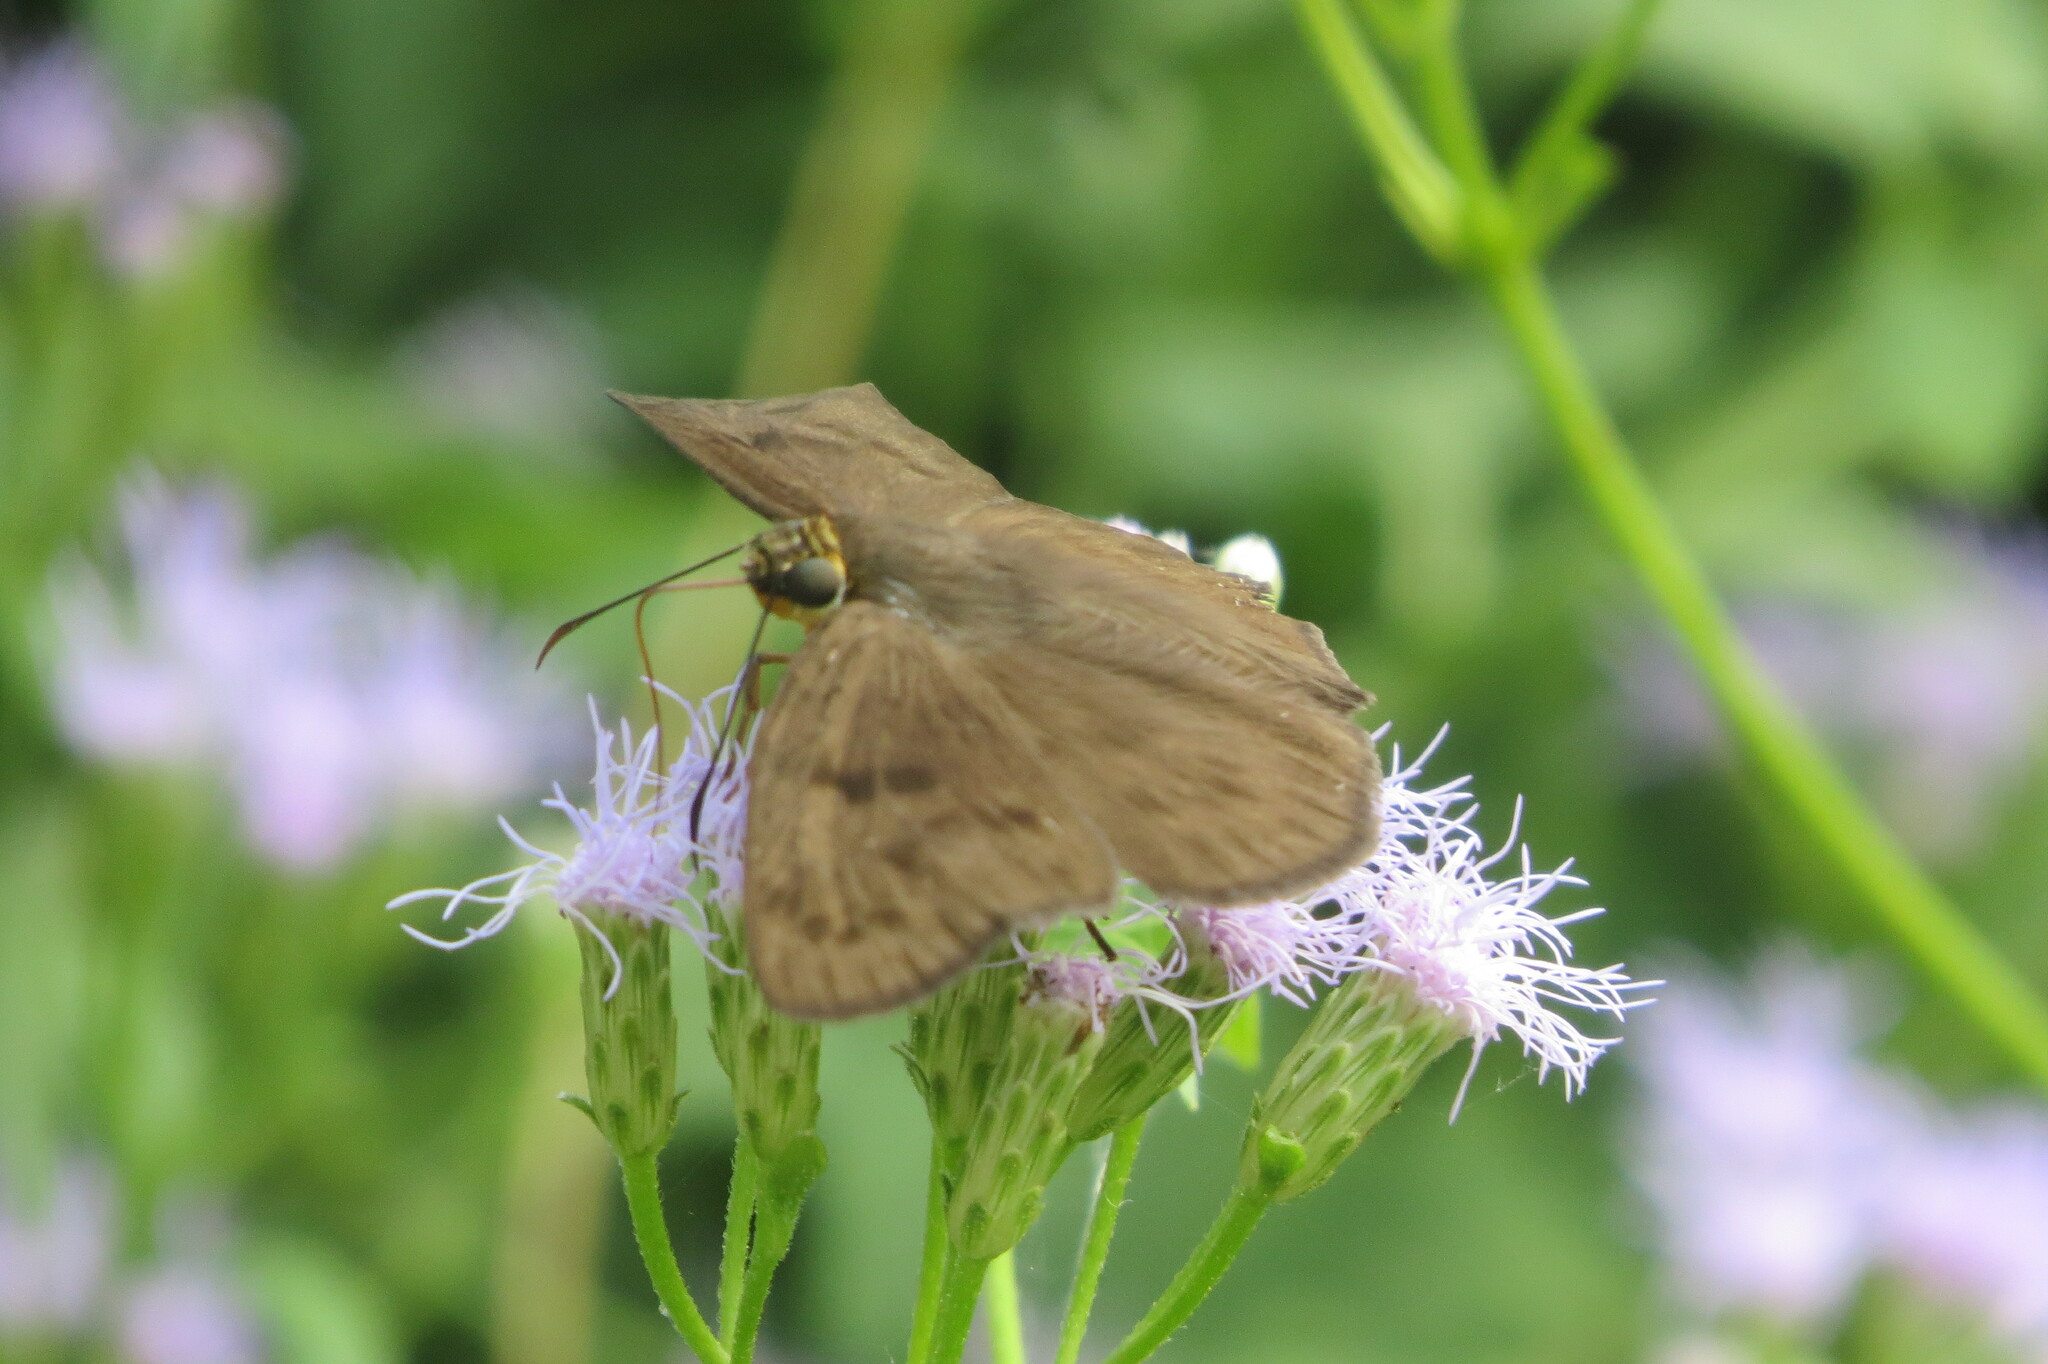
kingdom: Animalia
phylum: Arthropoda
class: Insecta
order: Lepidoptera
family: Hesperiidae
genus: Grais
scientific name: Grais stigmaticus
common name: Hermit skipper
